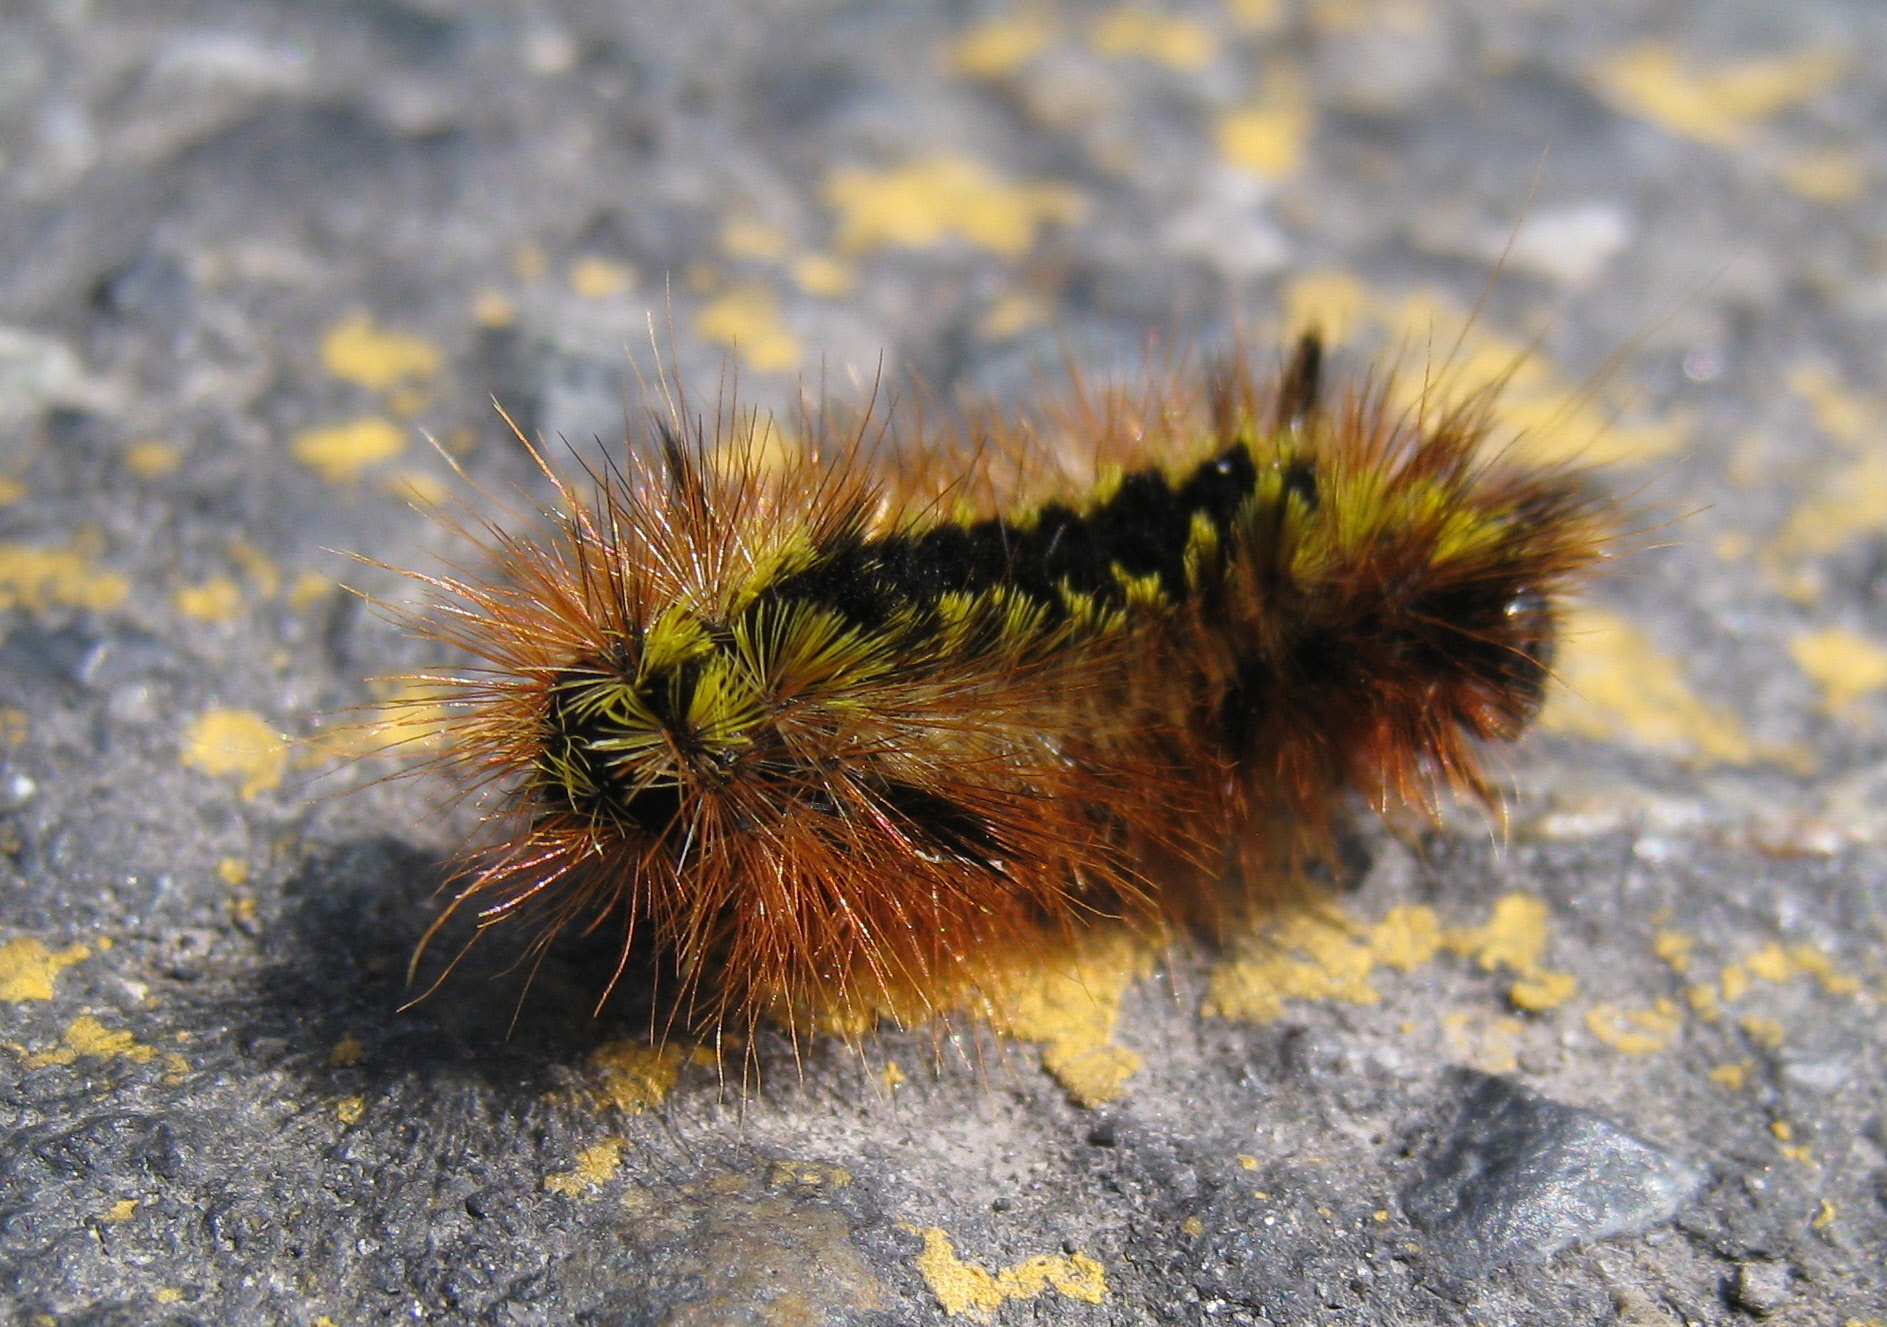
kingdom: Animalia
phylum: Arthropoda
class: Insecta
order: Lepidoptera
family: Erebidae
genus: Lophocampa
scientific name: Lophocampa argentata
